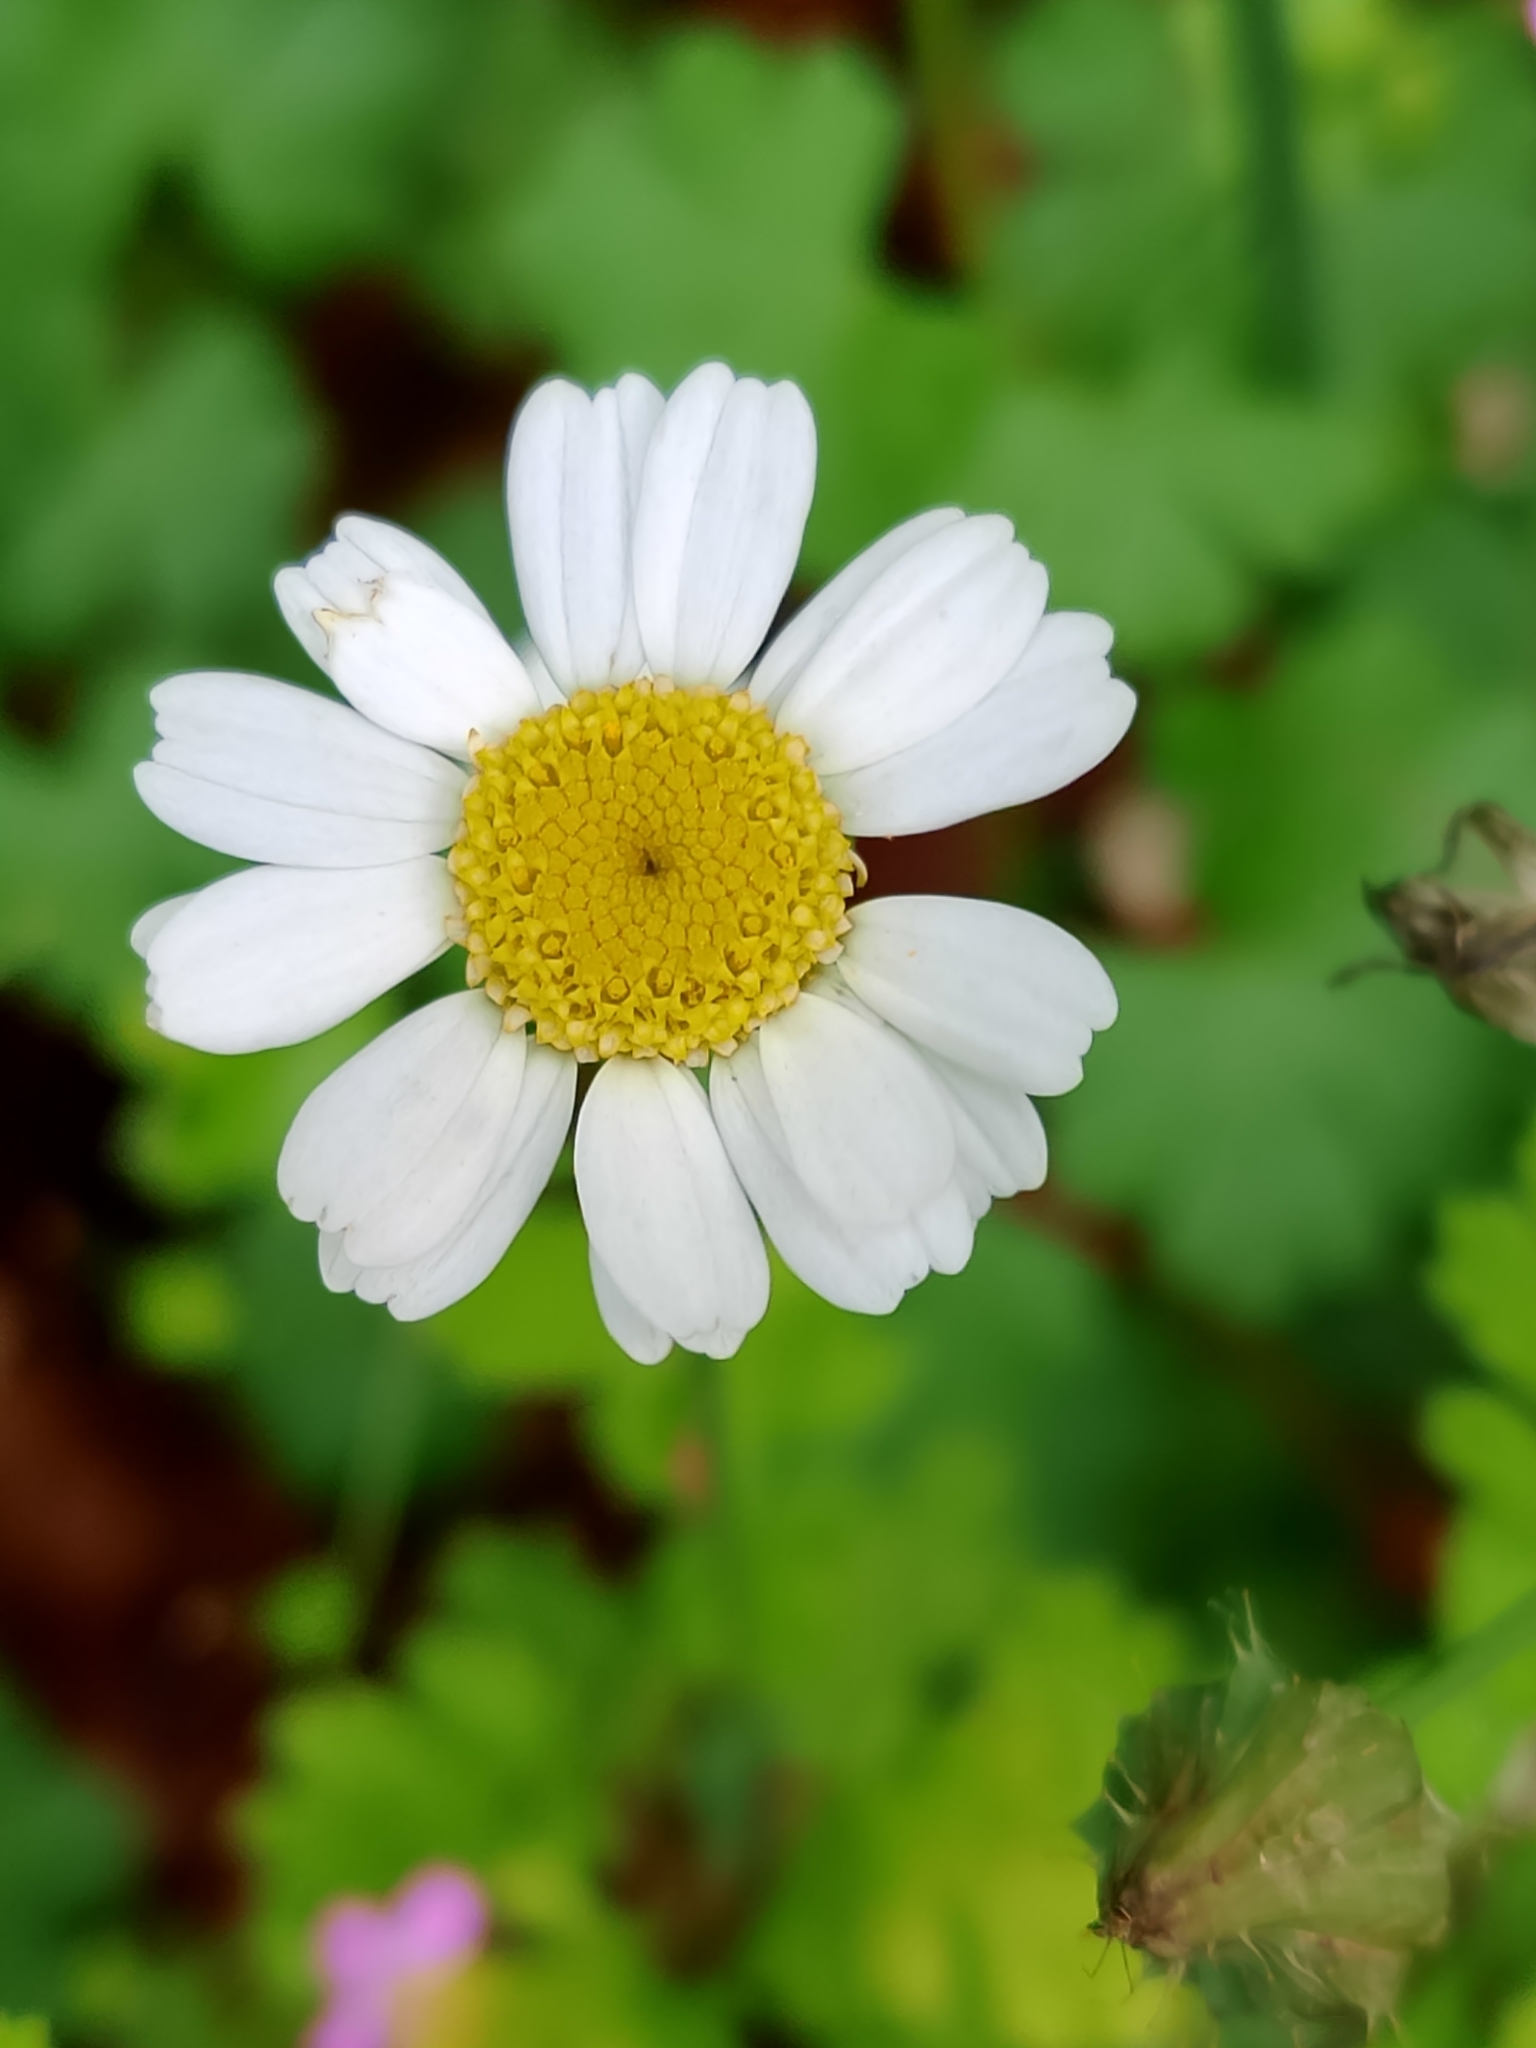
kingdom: Plantae
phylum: Tracheophyta
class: Magnoliopsida
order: Asterales
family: Asteraceae
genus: Tanacetum
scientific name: Tanacetum parthenium
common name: Feverfew
